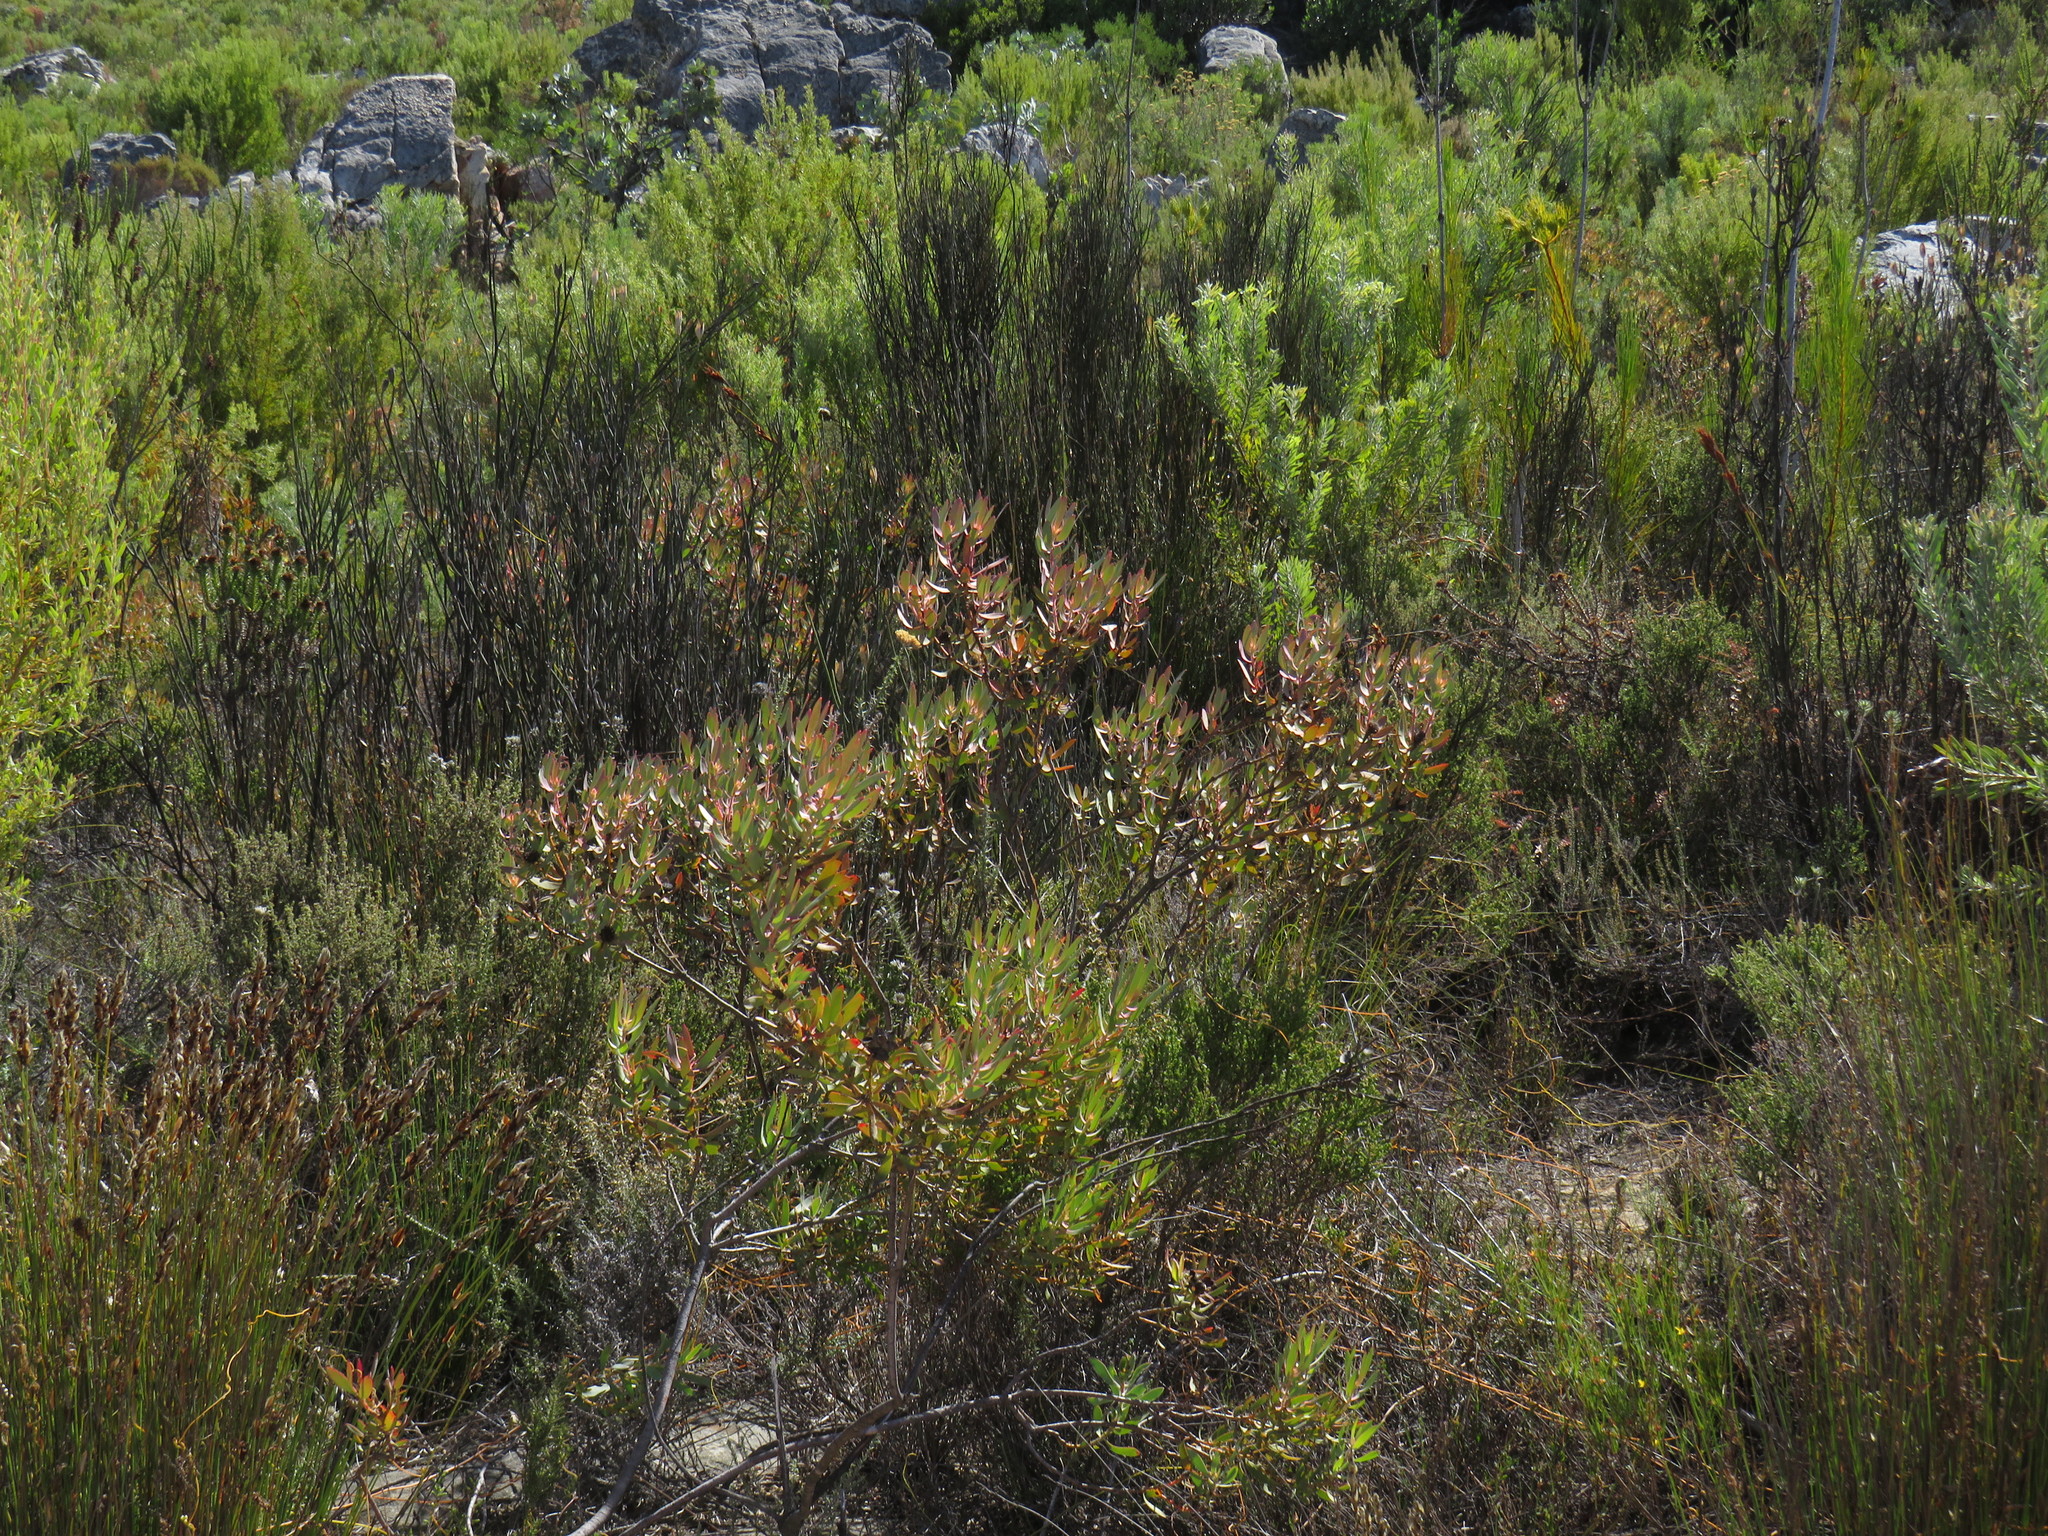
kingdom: Plantae
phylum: Tracheophyta
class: Magnoliopsida
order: Proteales
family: Proteaceae
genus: Leucadendron
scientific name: Leucadendron glaberrimum
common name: Common oily conebush
